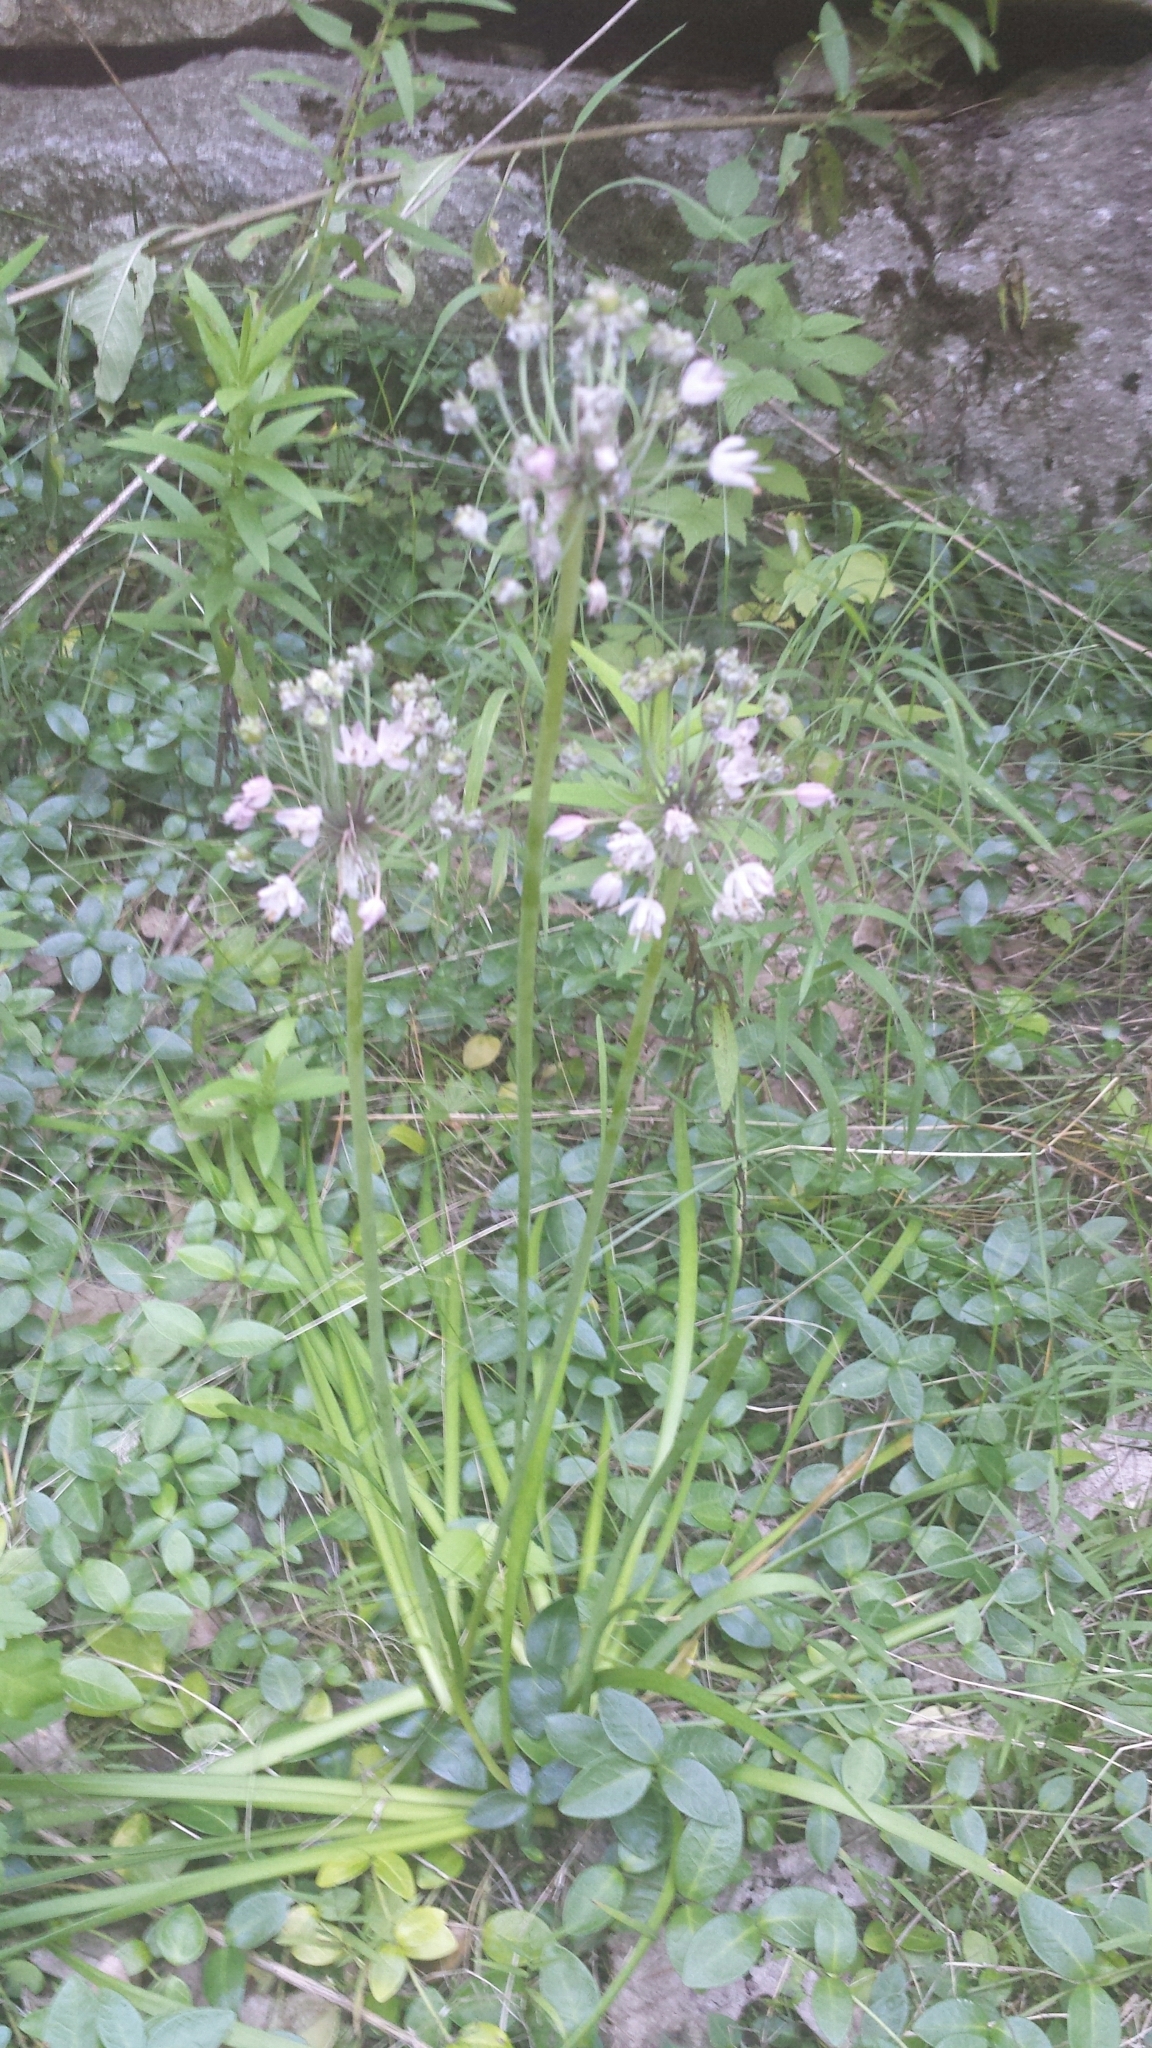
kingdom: Plantae
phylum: Tracheophyta
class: Liliopsida
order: Asparagales
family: Amaryllidaceae
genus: Allium
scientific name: Allium cernuum
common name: Nodding onion
